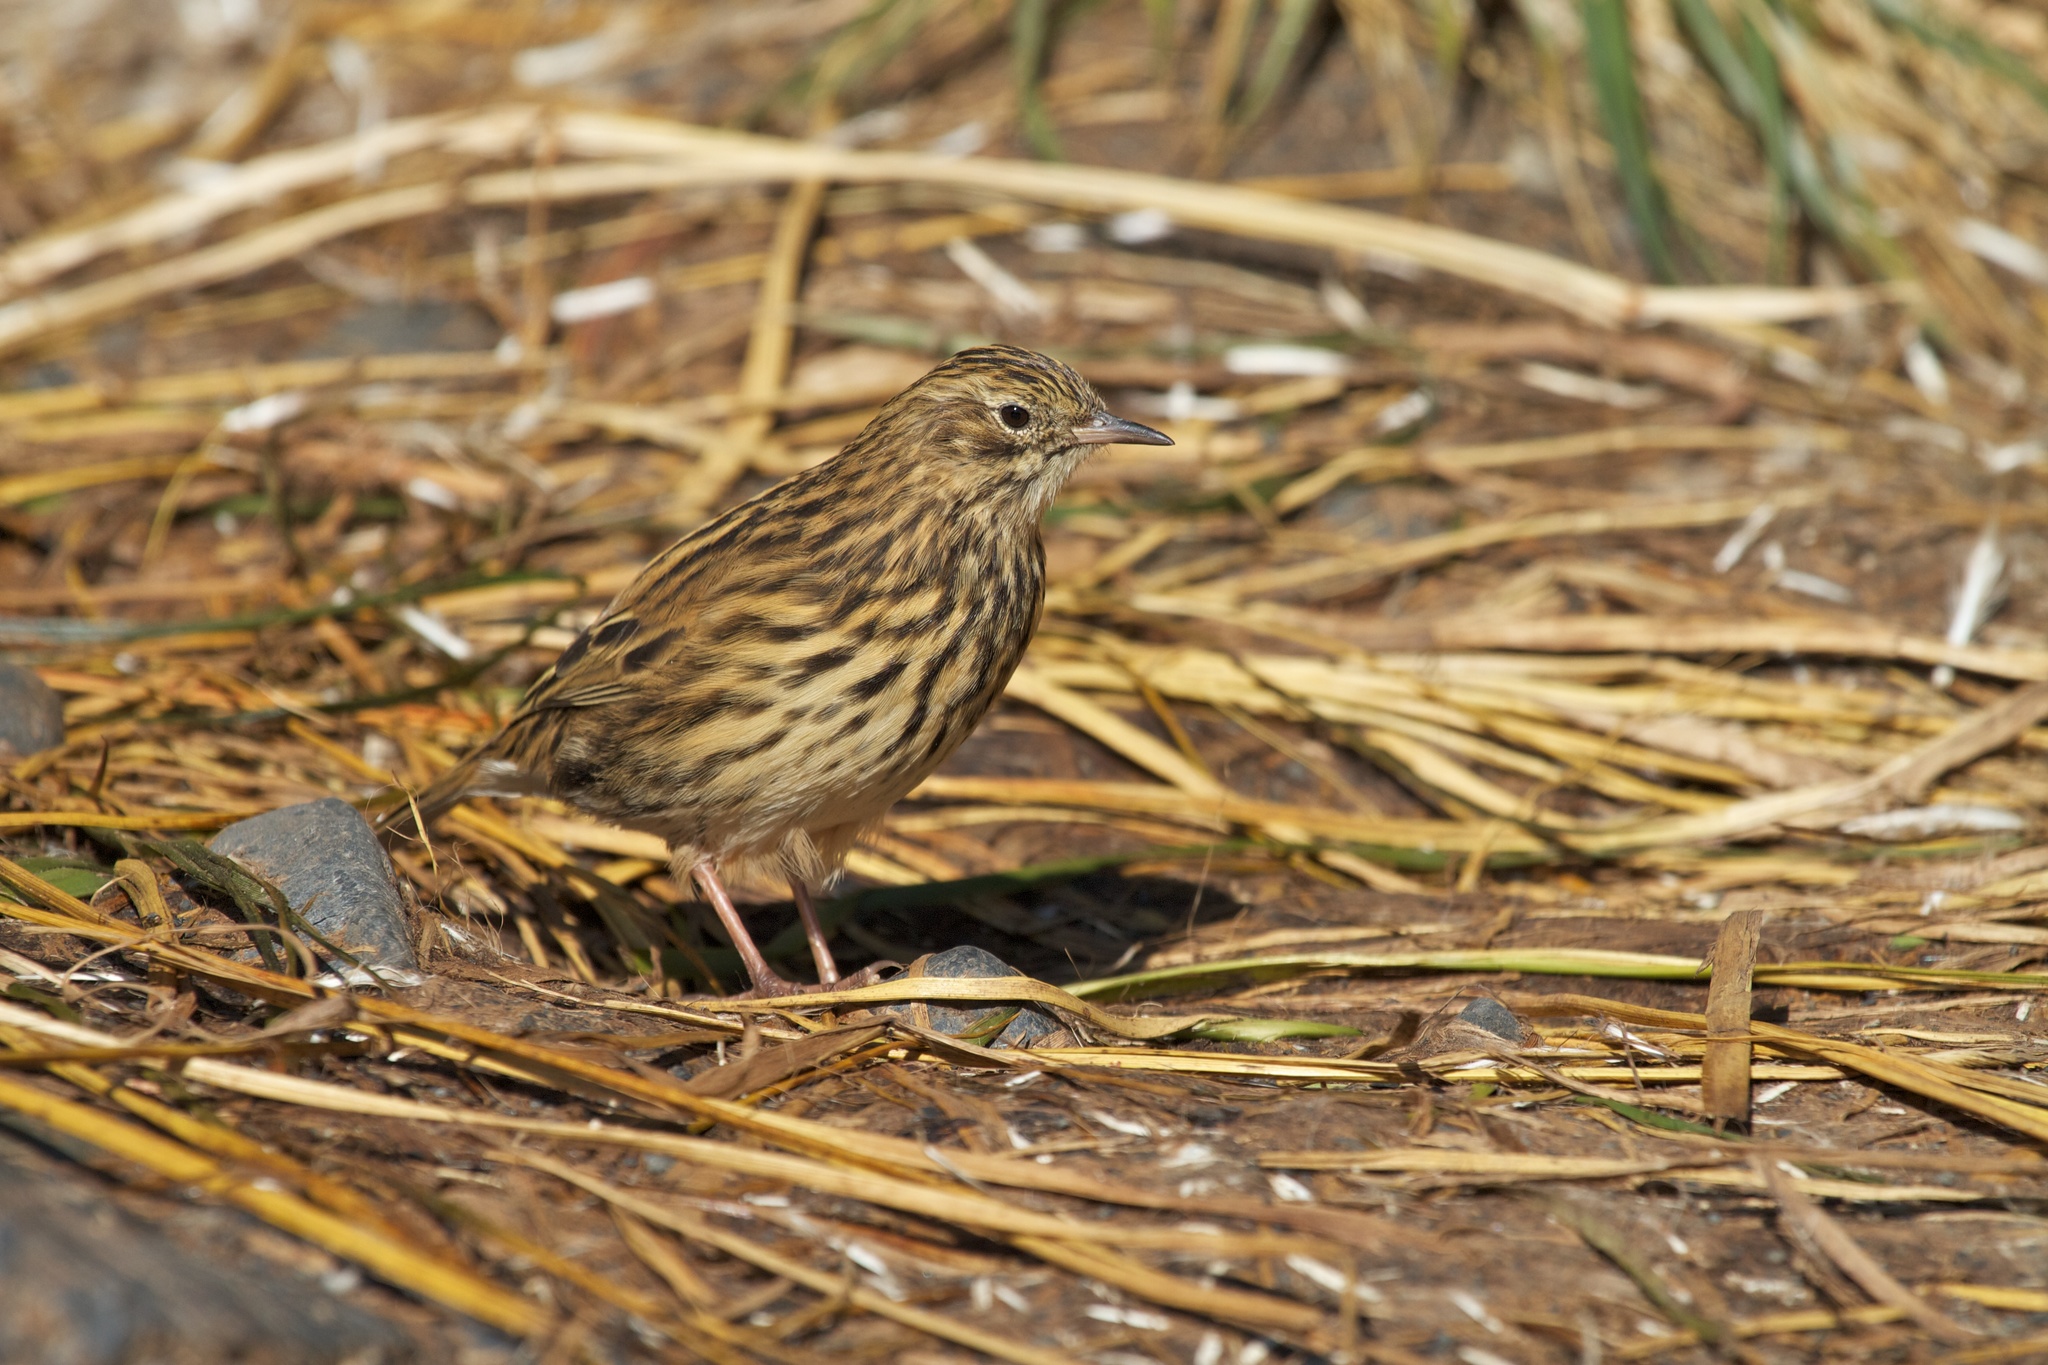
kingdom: Animalia
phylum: Chordata
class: Aves
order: Passeriformes
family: Motacillidae
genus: Anthus
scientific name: Anthus antarcticus
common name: South georgia pipit
